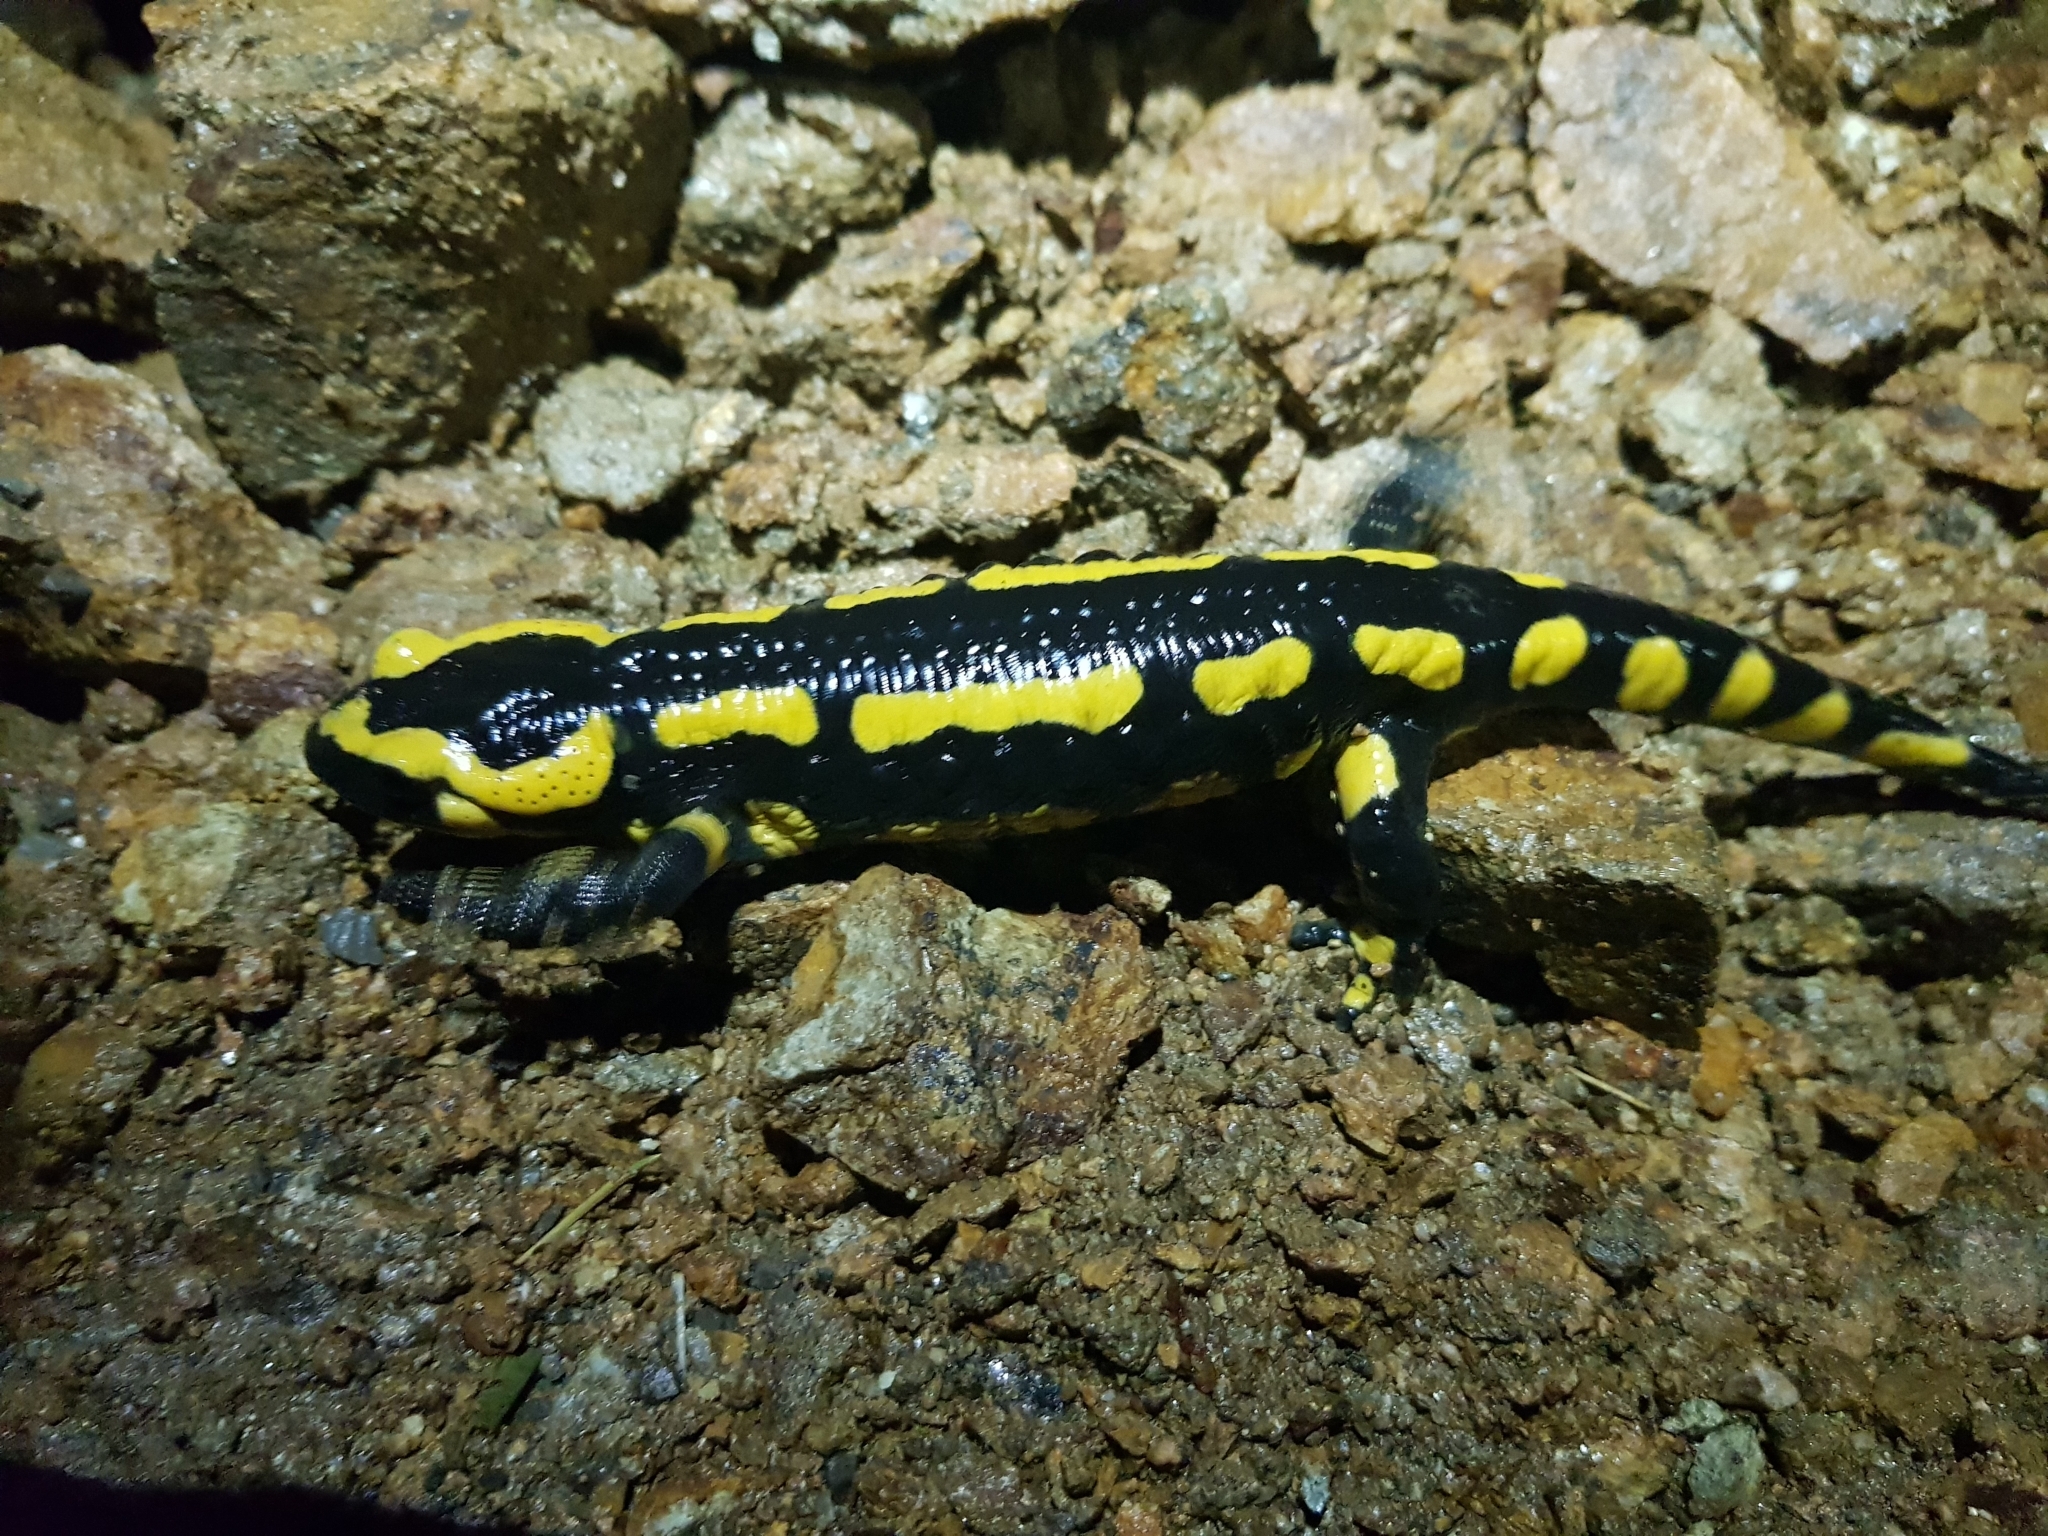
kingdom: Animalia
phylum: Chordata
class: Amphibia
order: Caudata
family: Salamandridae
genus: Salamandra
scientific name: Salamandra salamandra
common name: Fire salamander
